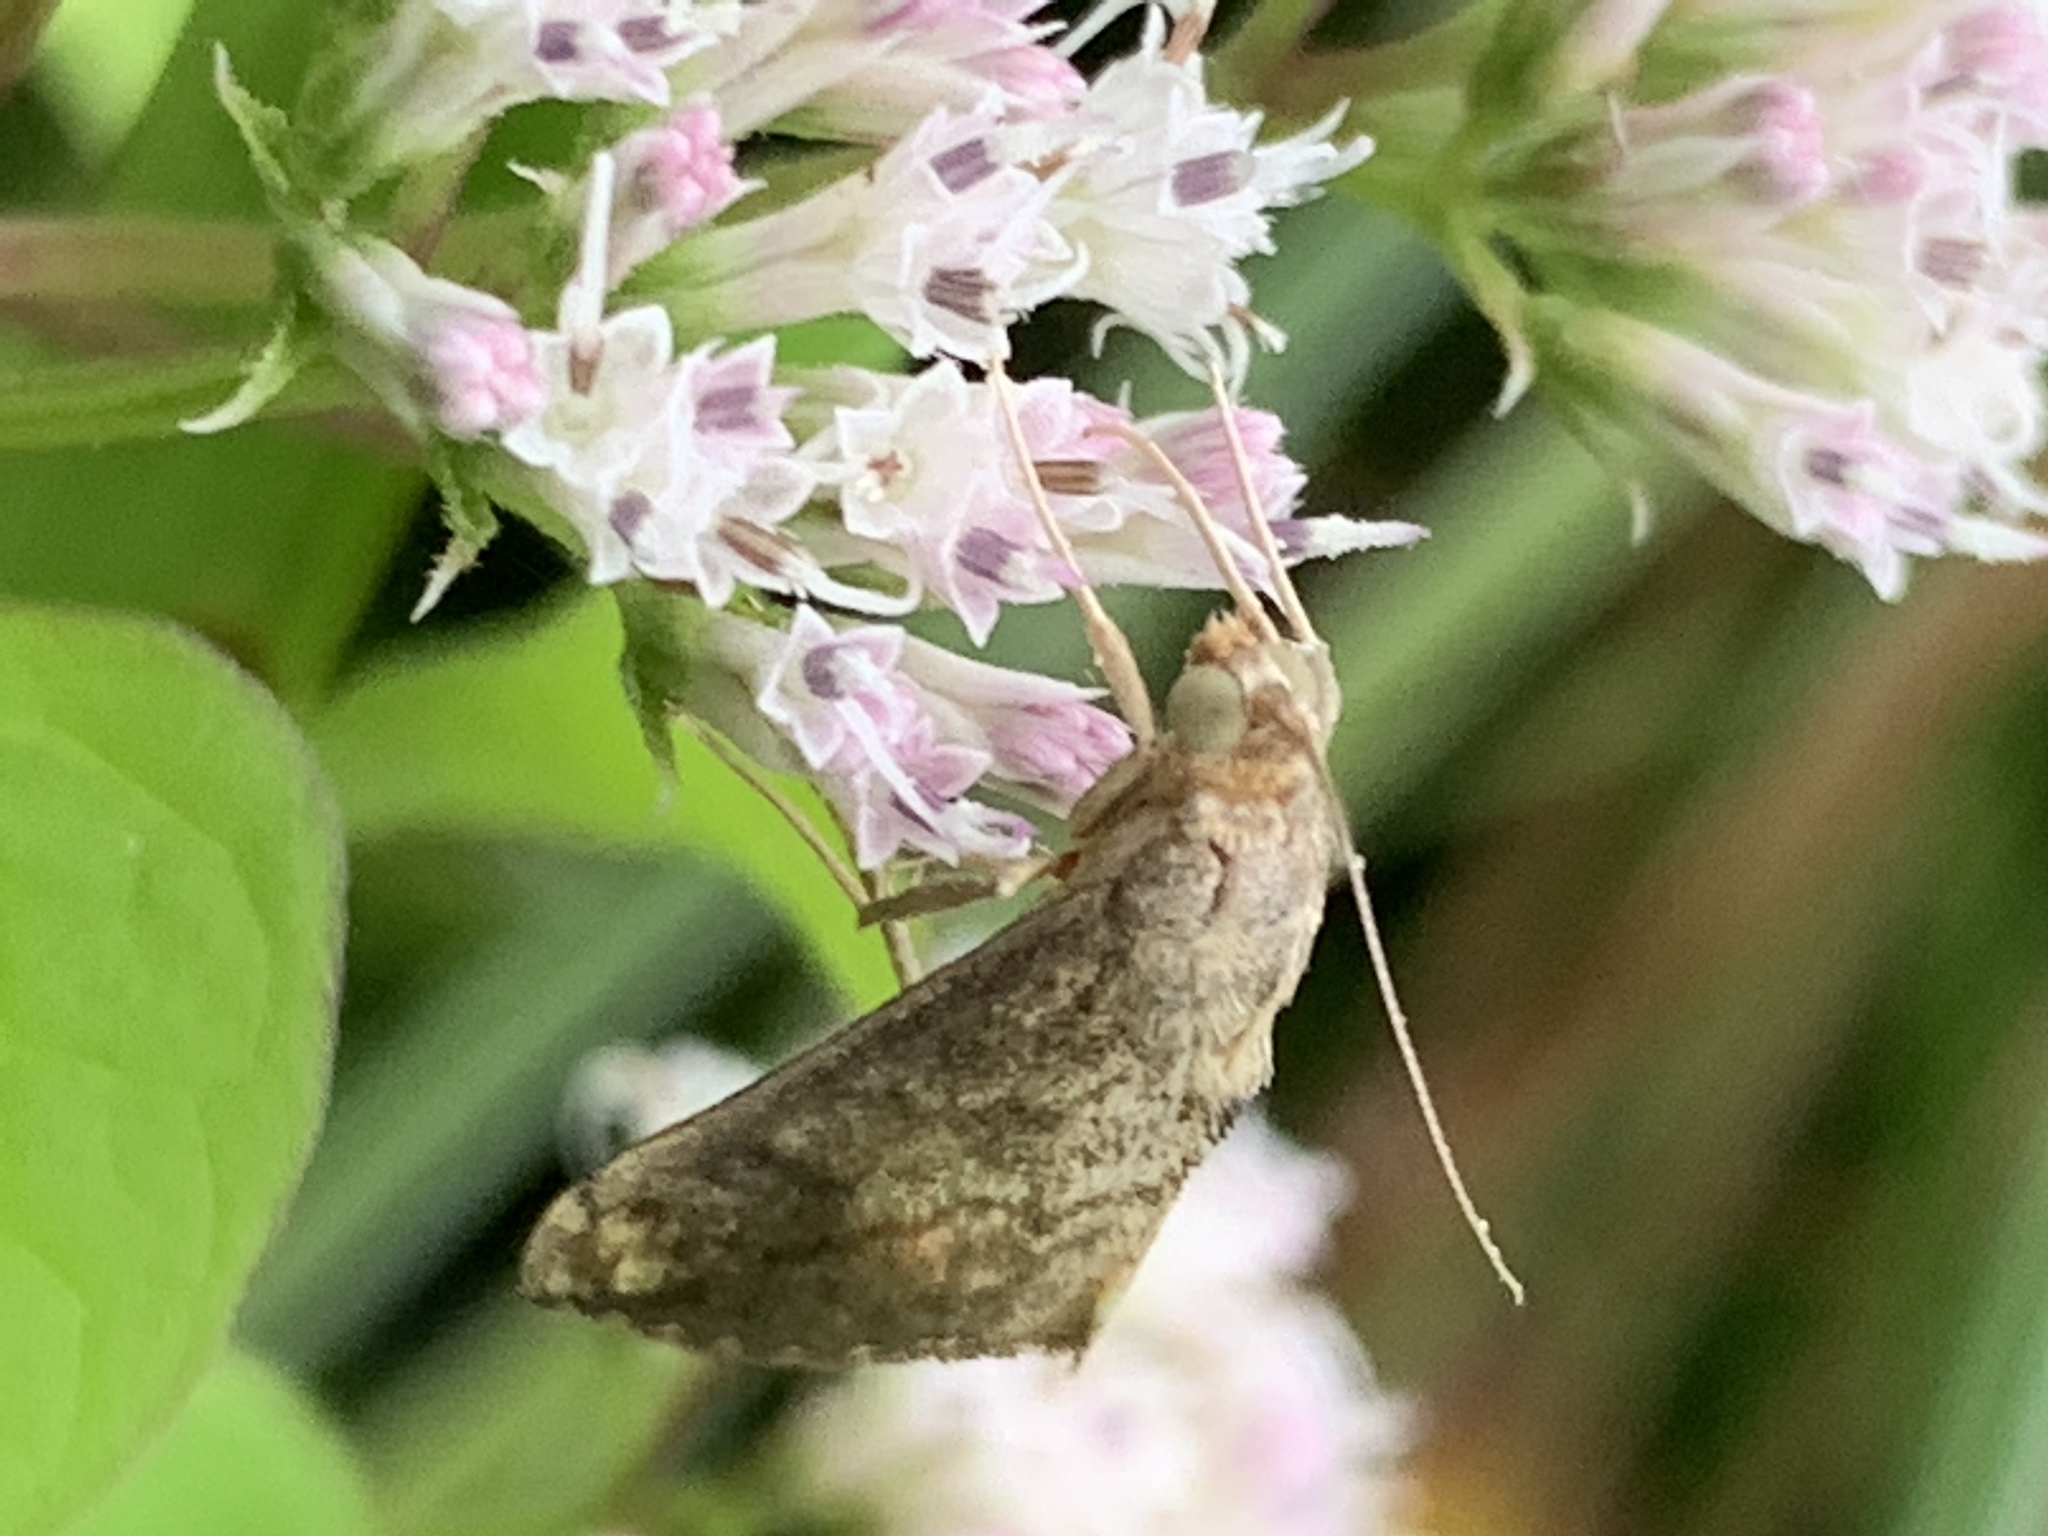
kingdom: Animalia
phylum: Arthropoda
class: Insecta
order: Lepidoptera
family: Crambidae
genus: Evergestis
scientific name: Evergestis rimosalis
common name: Cross-striped cabbageworm moth
